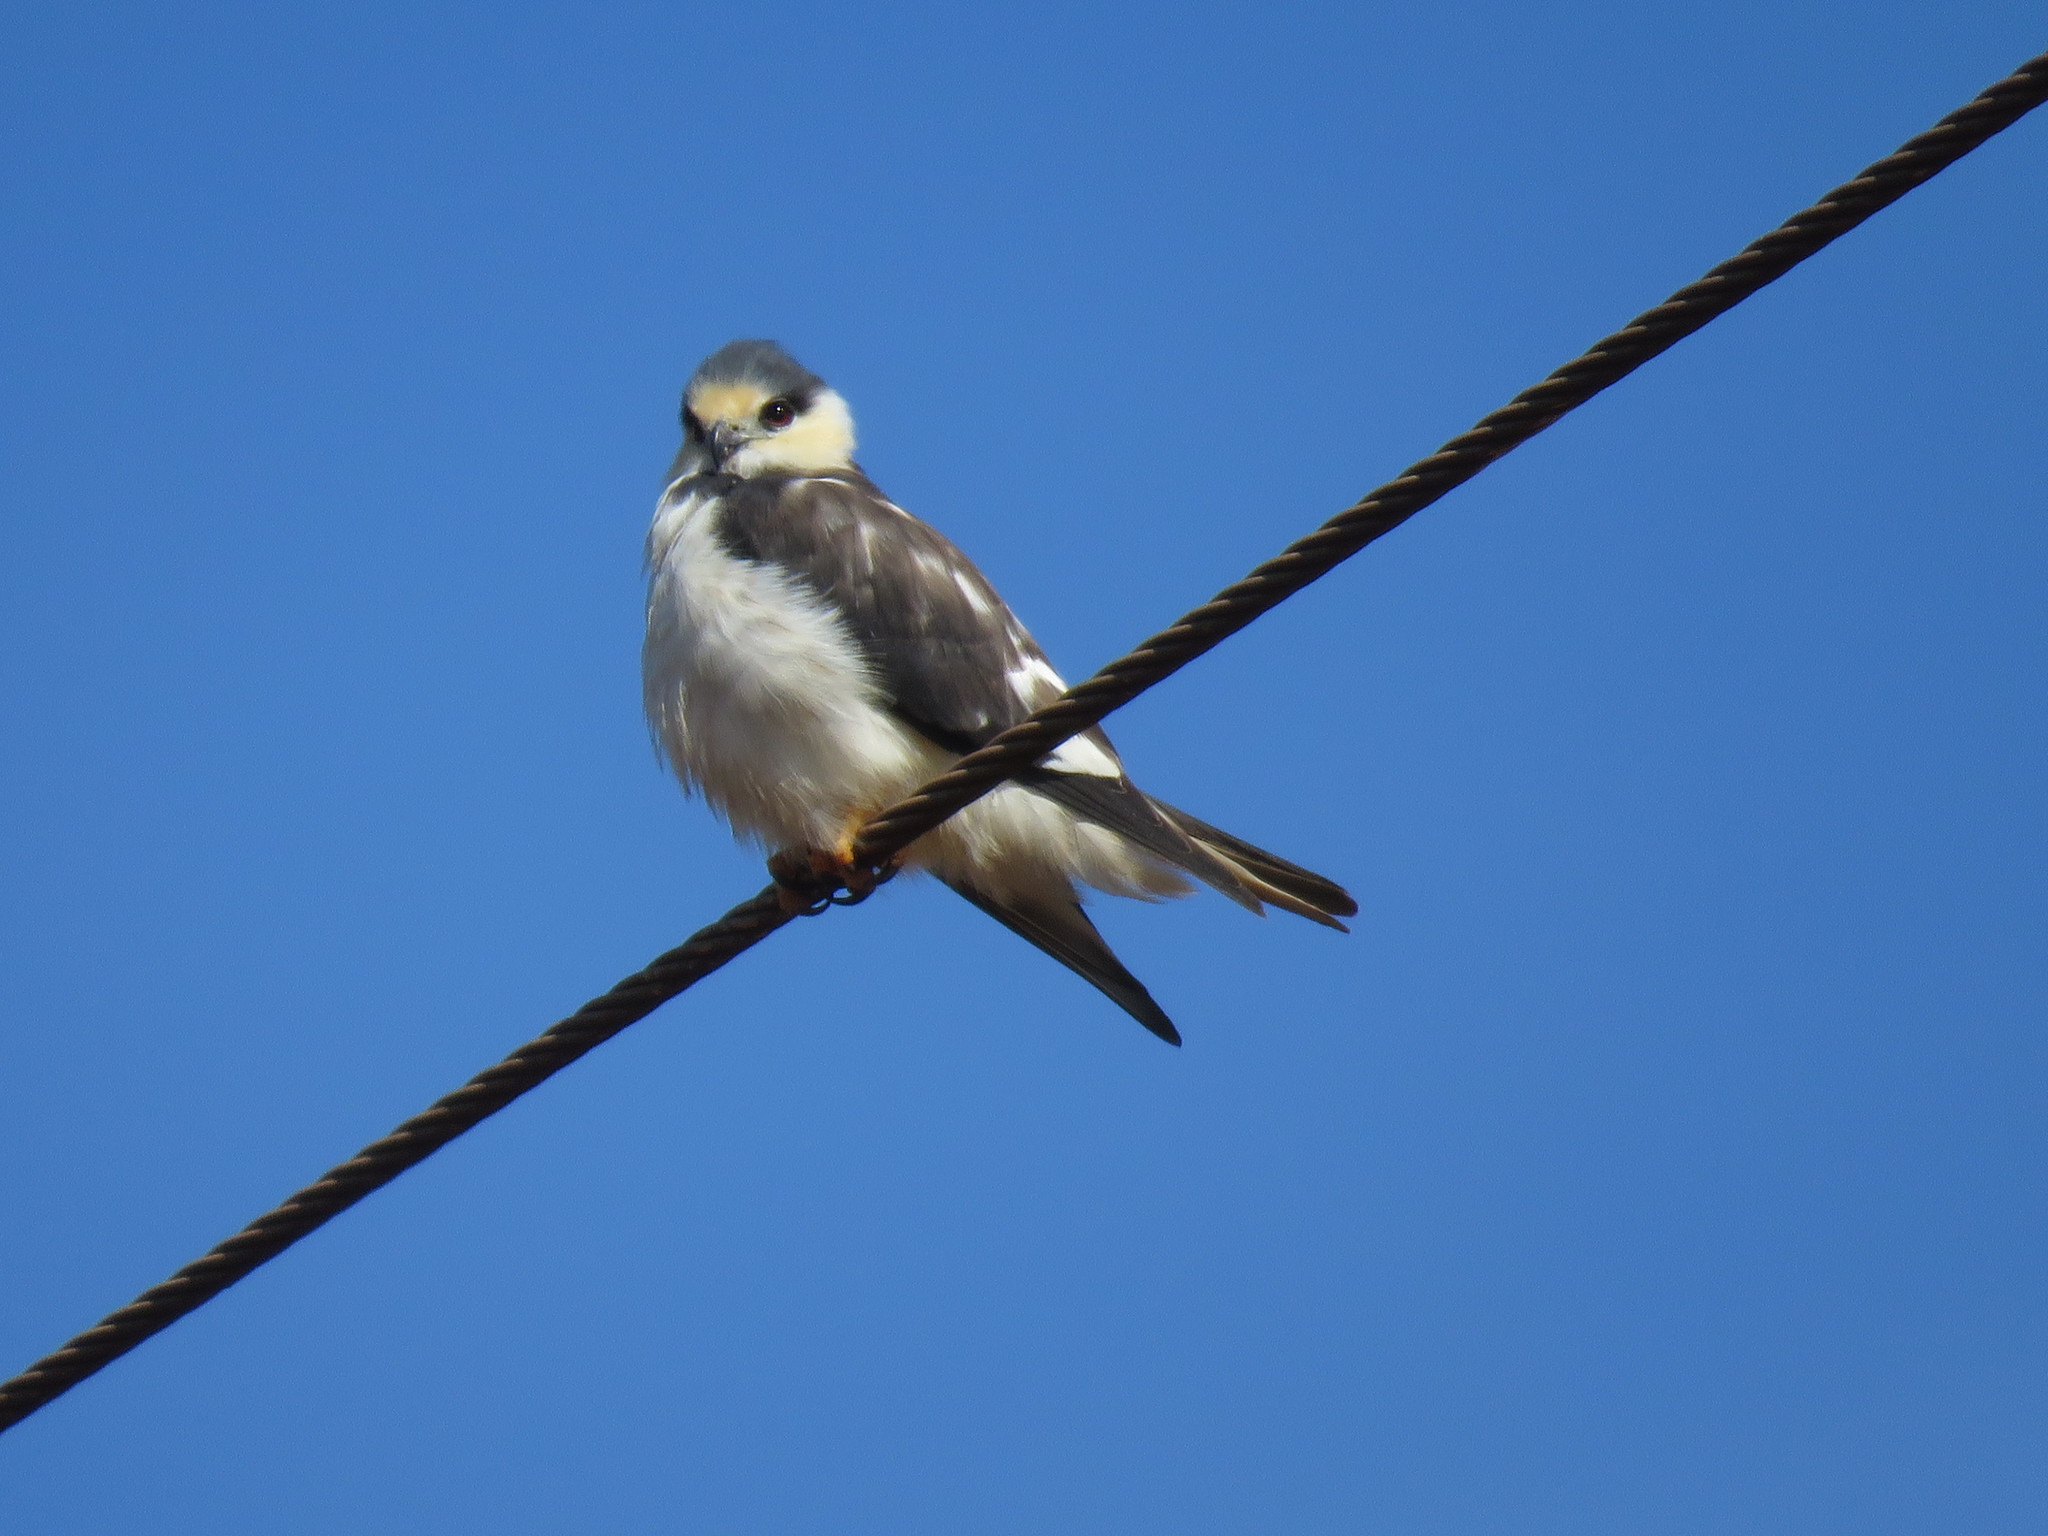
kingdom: Animalia
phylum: Chordata
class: Aves
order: Accipitriformes
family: Accipitridae
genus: Gampsonyx
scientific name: Gampsonyx swainsonii
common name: Pearl kite
